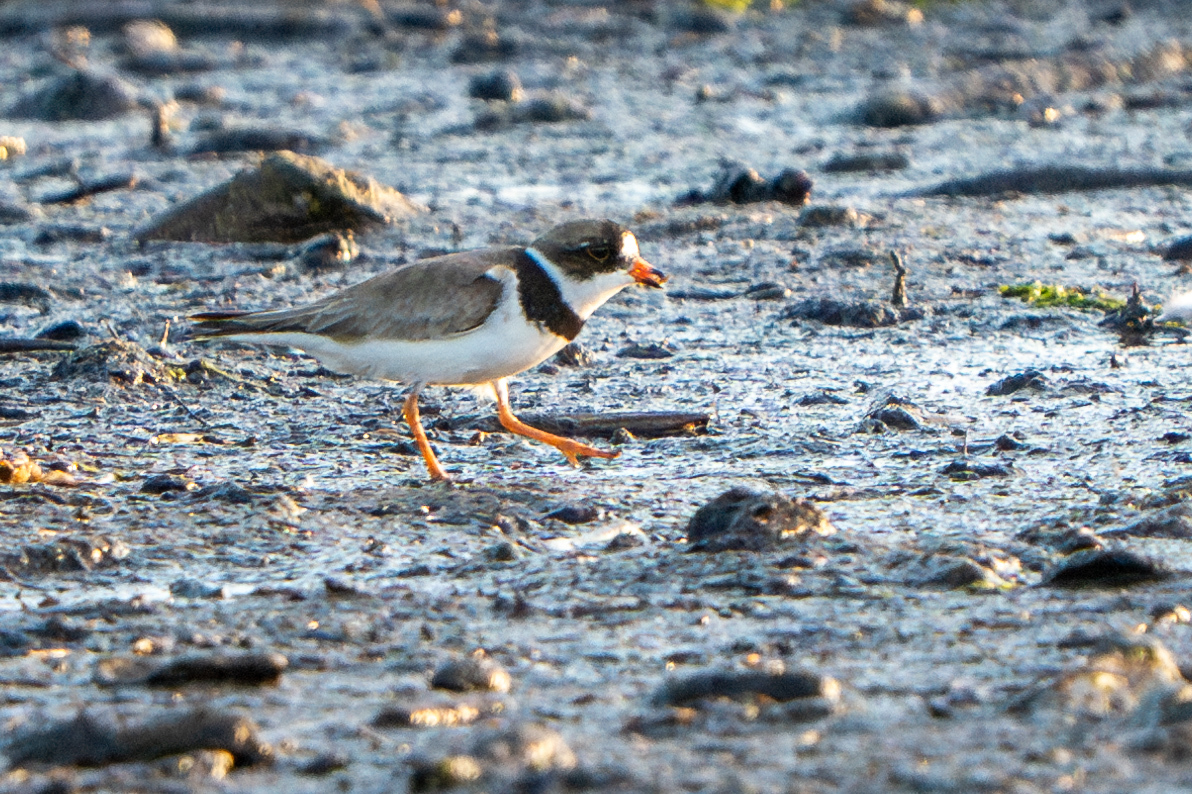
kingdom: Animalia
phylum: Chordata
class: Aves
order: Charadriiformes
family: Charadriidae
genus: Charadrius
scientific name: Charadrius semipalmatus
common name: Semipalmated plover
